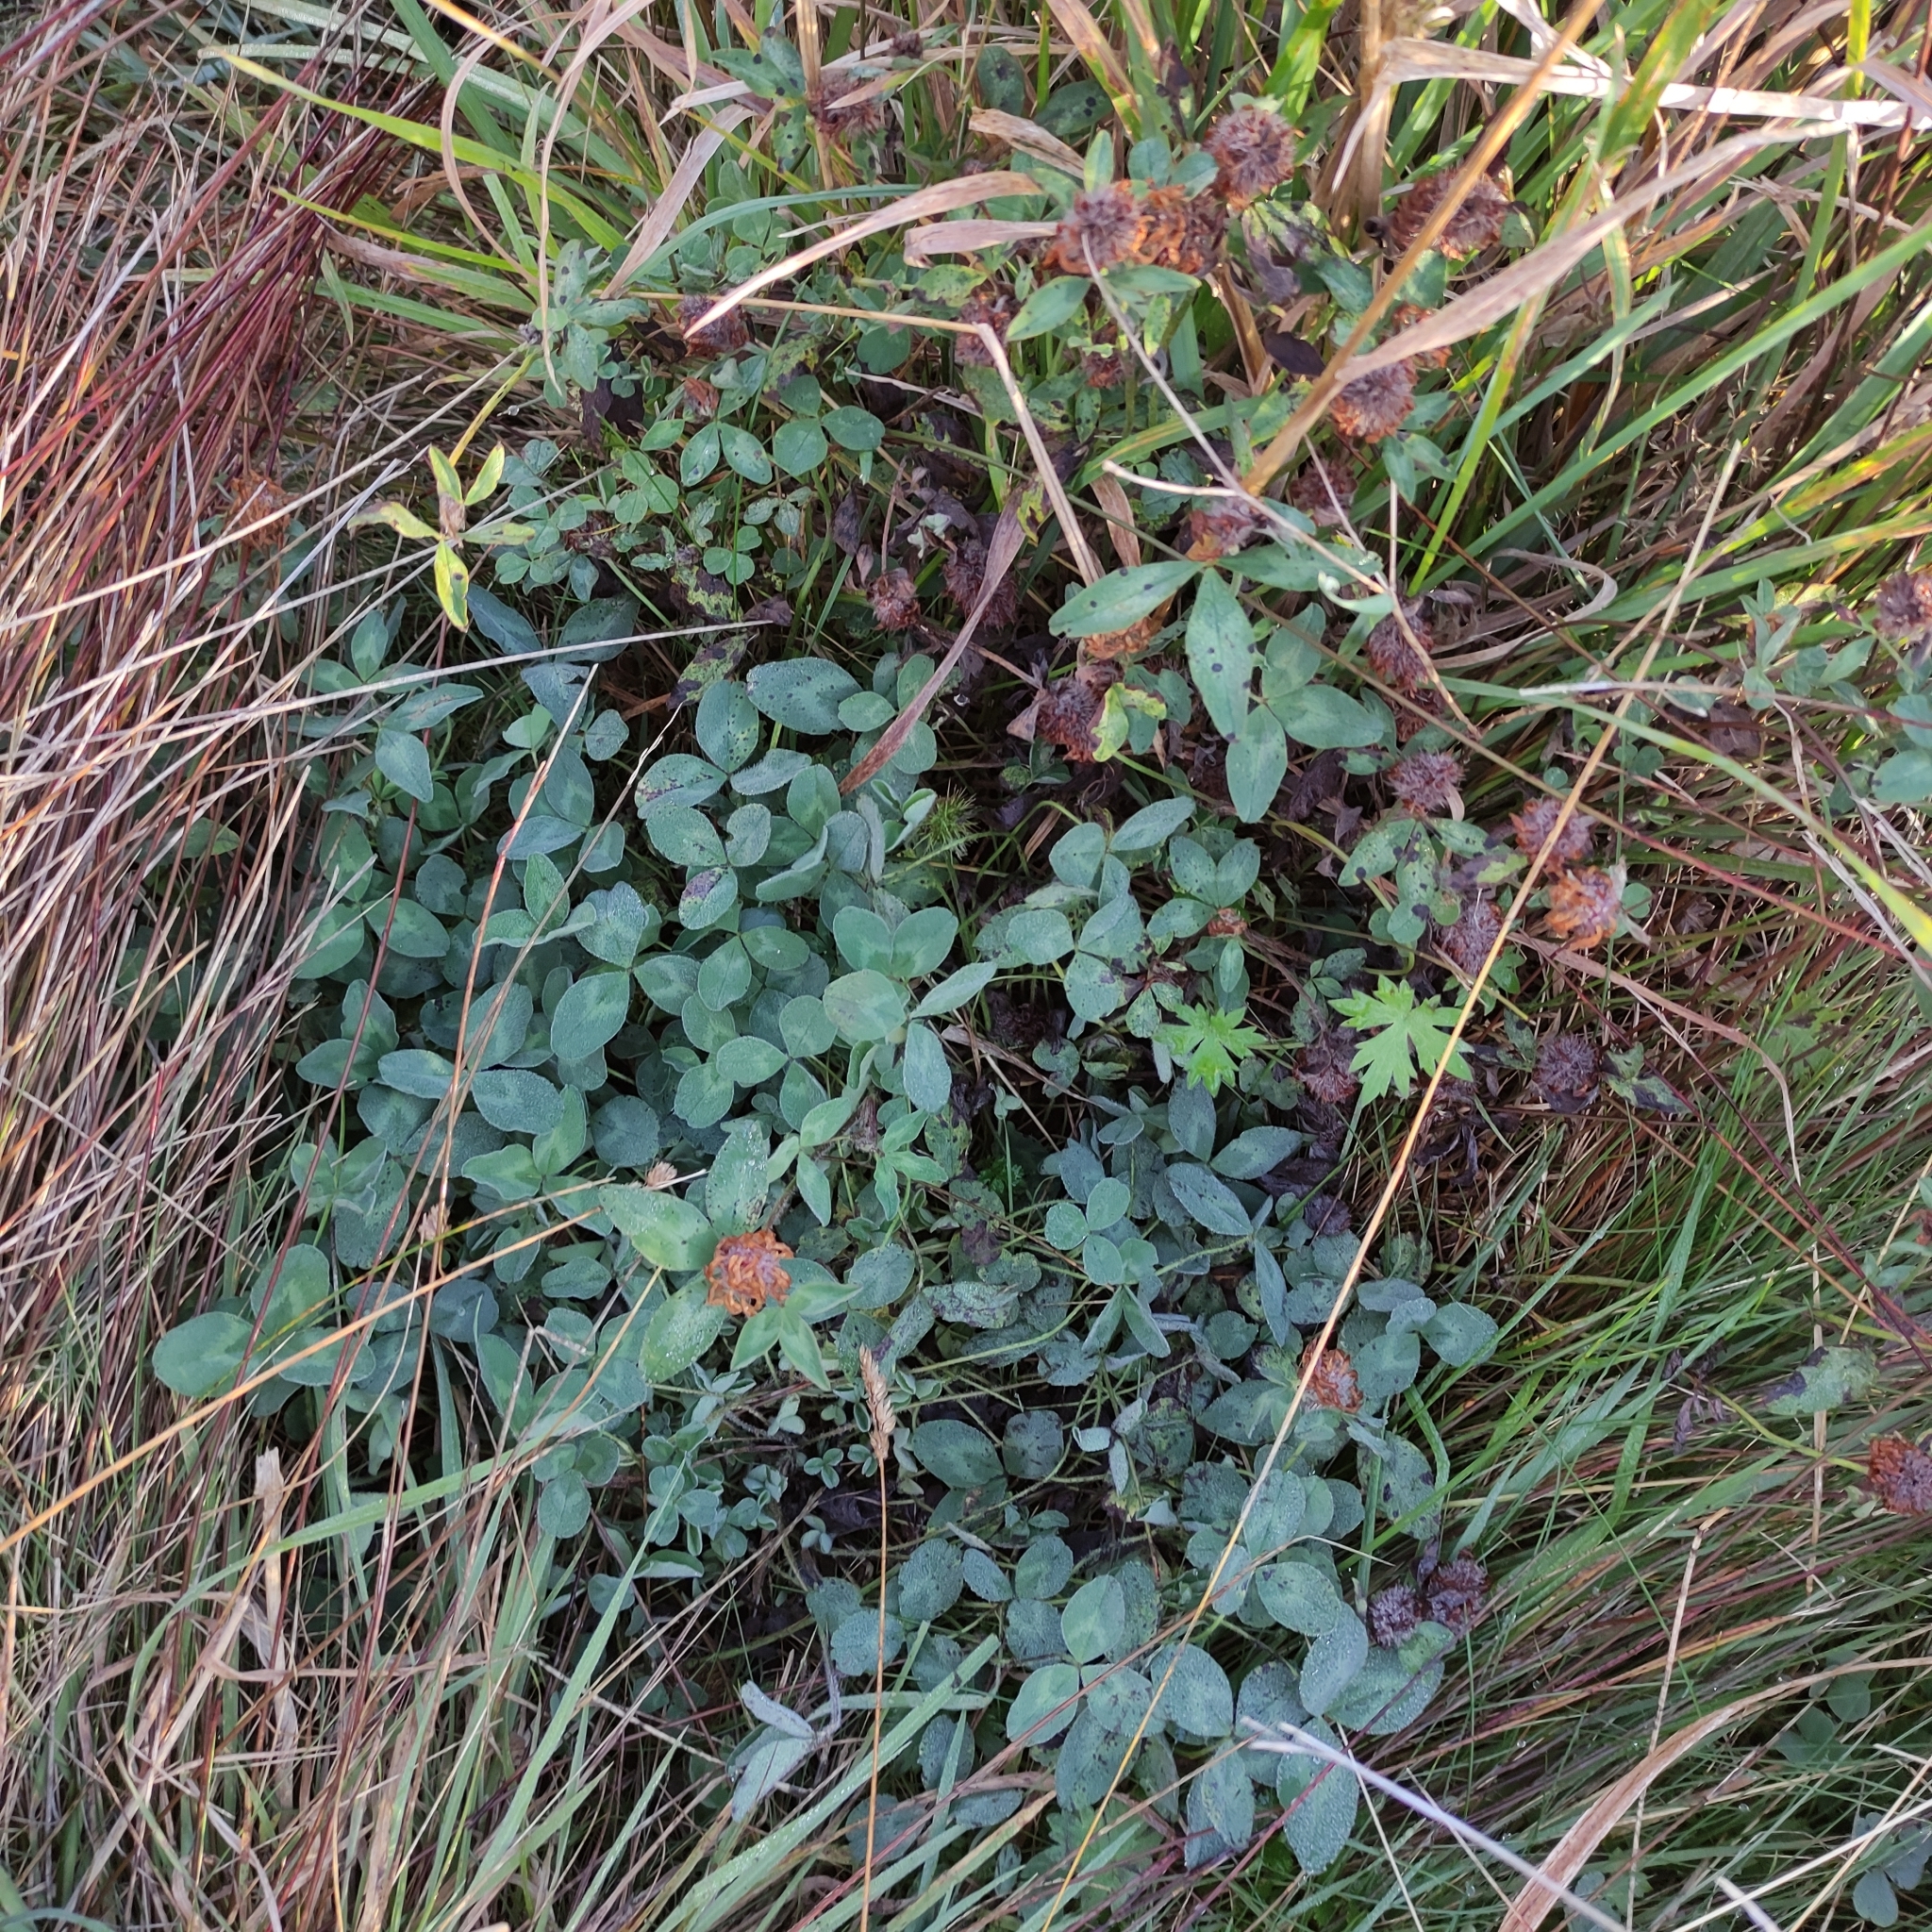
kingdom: Plantae
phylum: Tracheophyta
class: Magnoliopsida
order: Fabales
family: Fabaceae
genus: Trifolium
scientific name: Trifolium pratense
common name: Red clover
